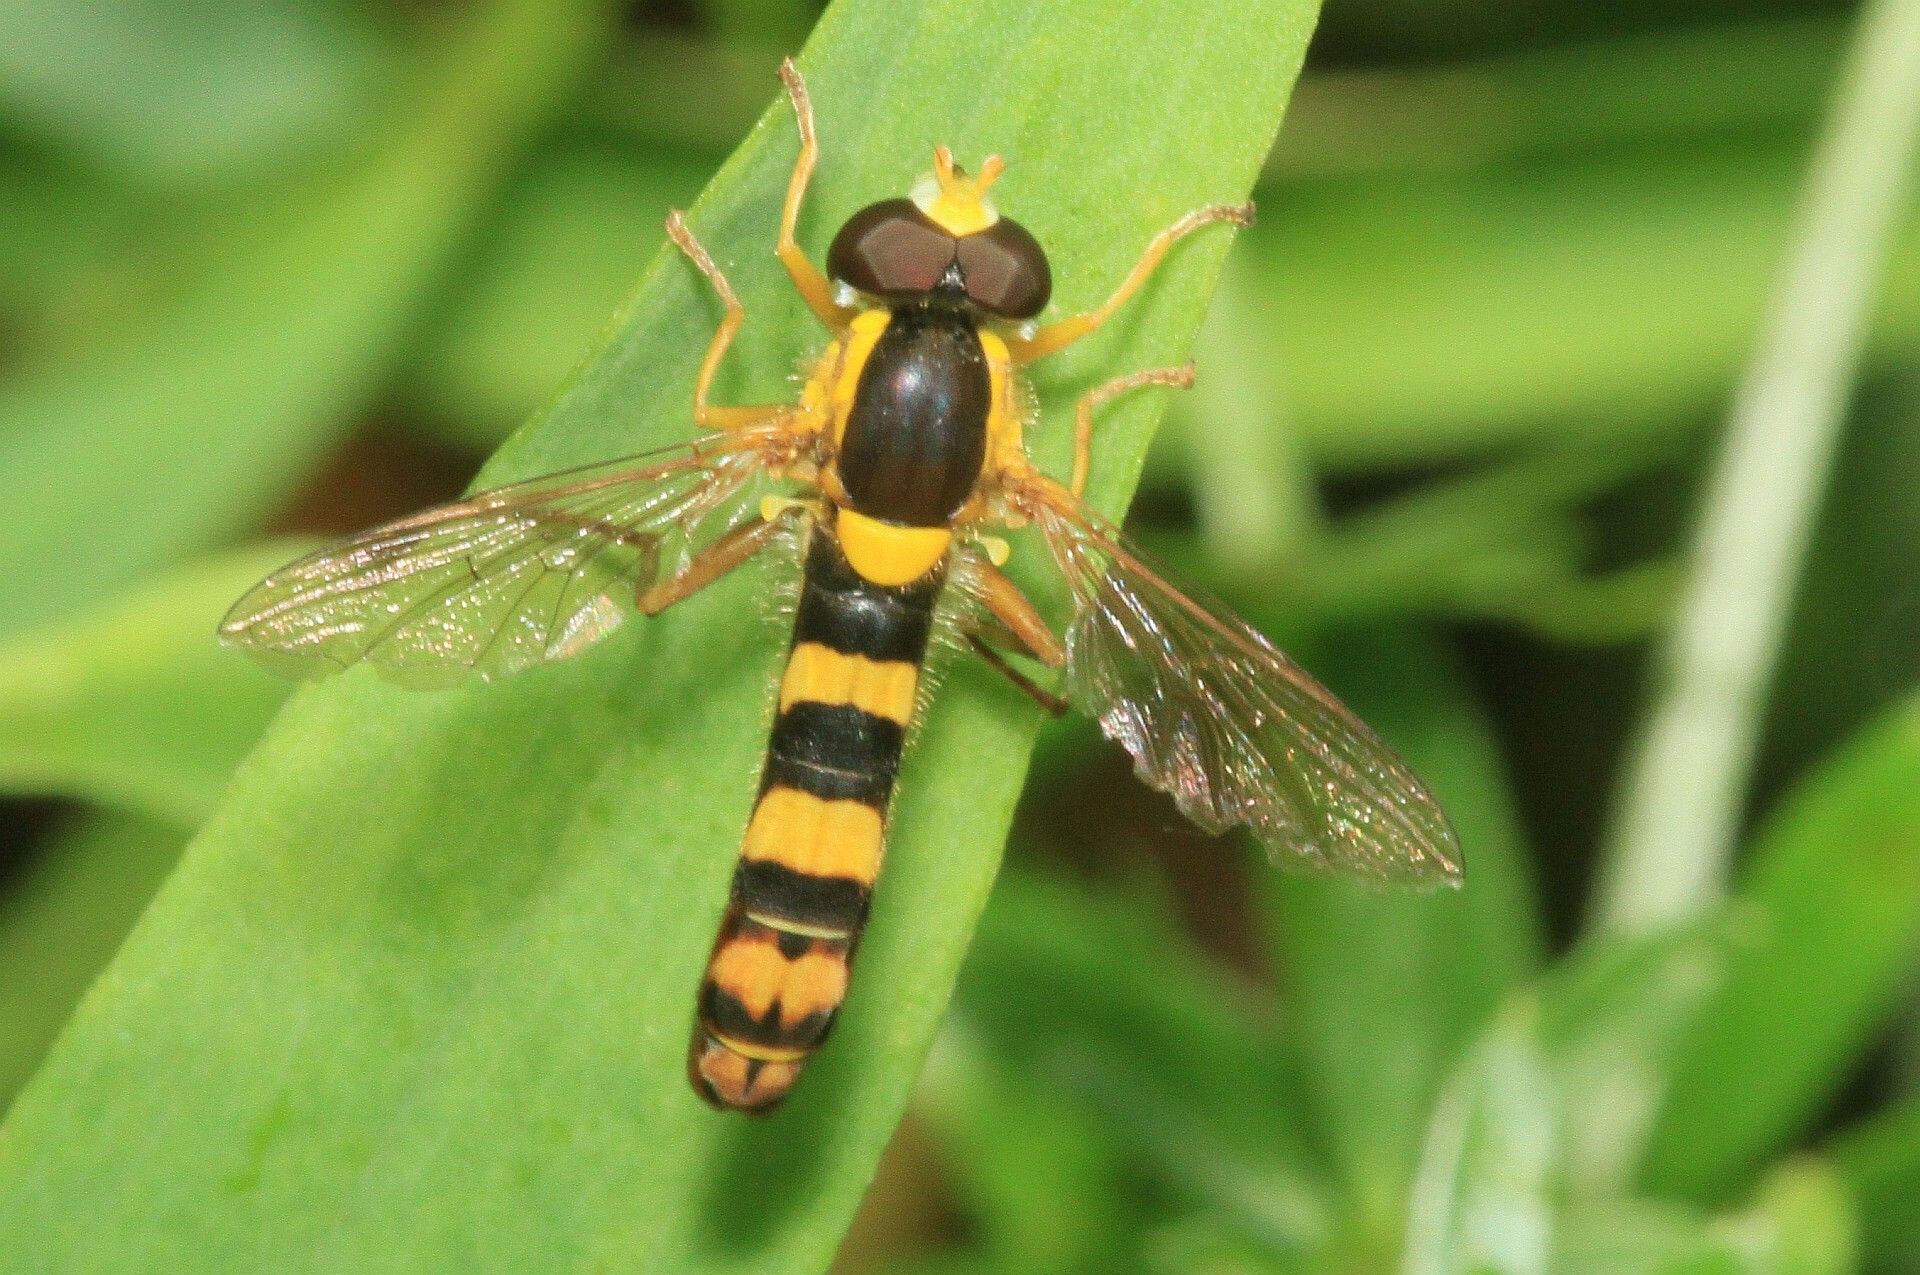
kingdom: Animalia
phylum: Arthropoda
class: Insecta
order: Diptera
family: Syrphidae
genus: Sphaerophoria
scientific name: Sphaerophoria scripta
